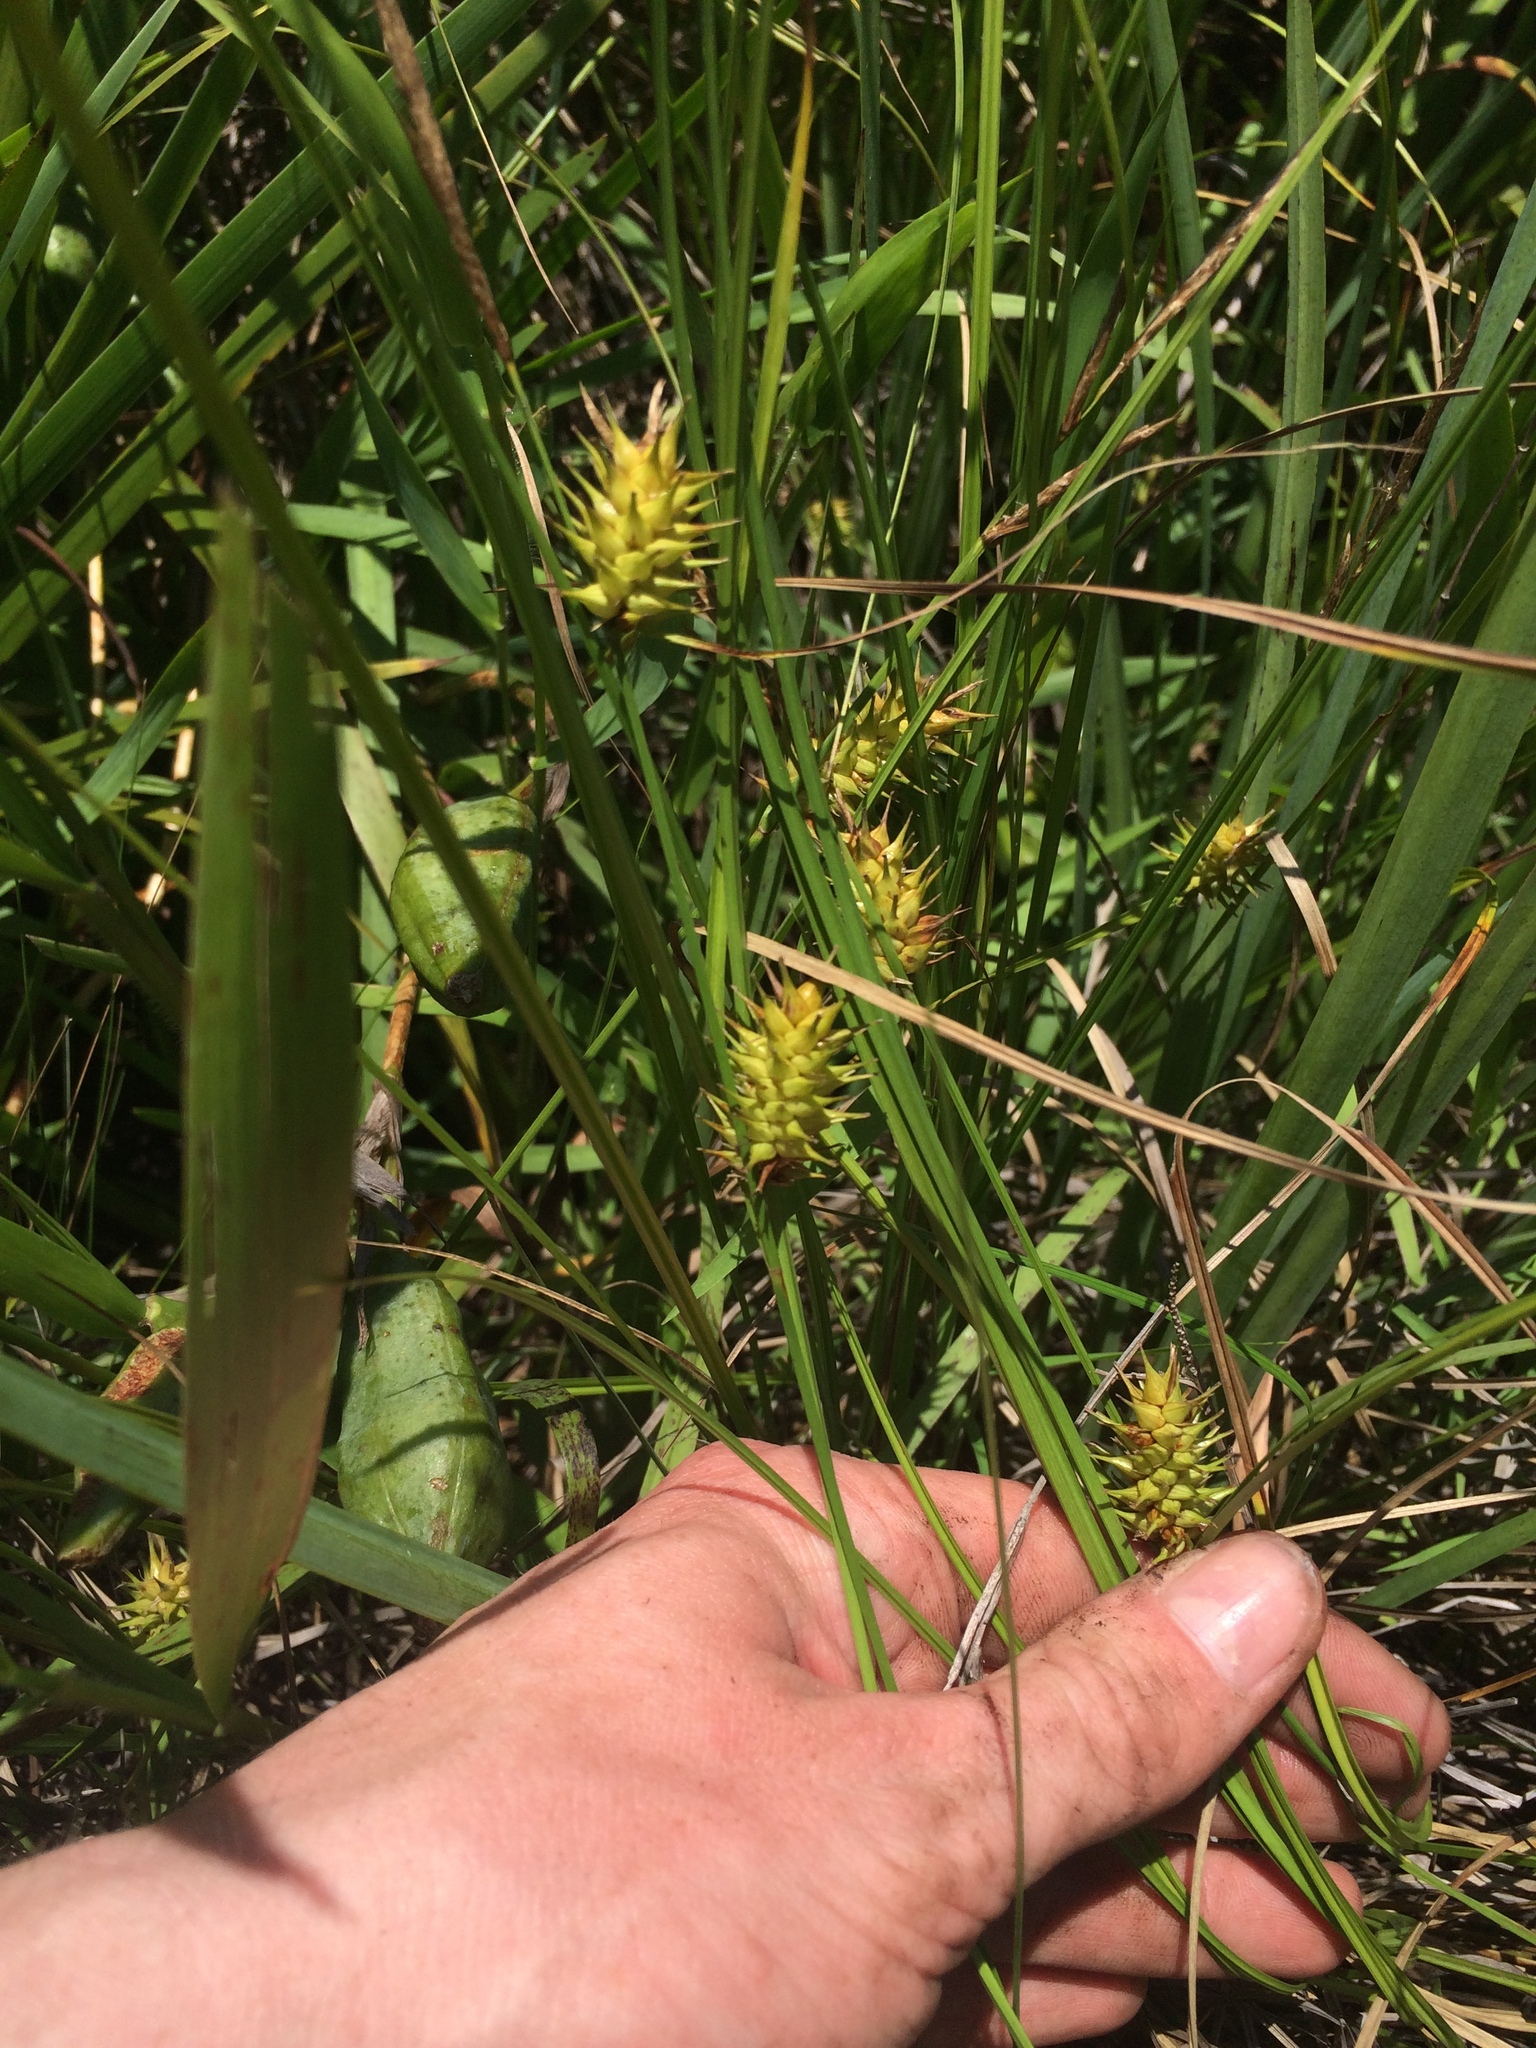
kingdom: Plantae
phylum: Tracheophyta
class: Liliopsida
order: Poales
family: Cyperaceae
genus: Carex
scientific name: Carex bullata
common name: Button sedge
